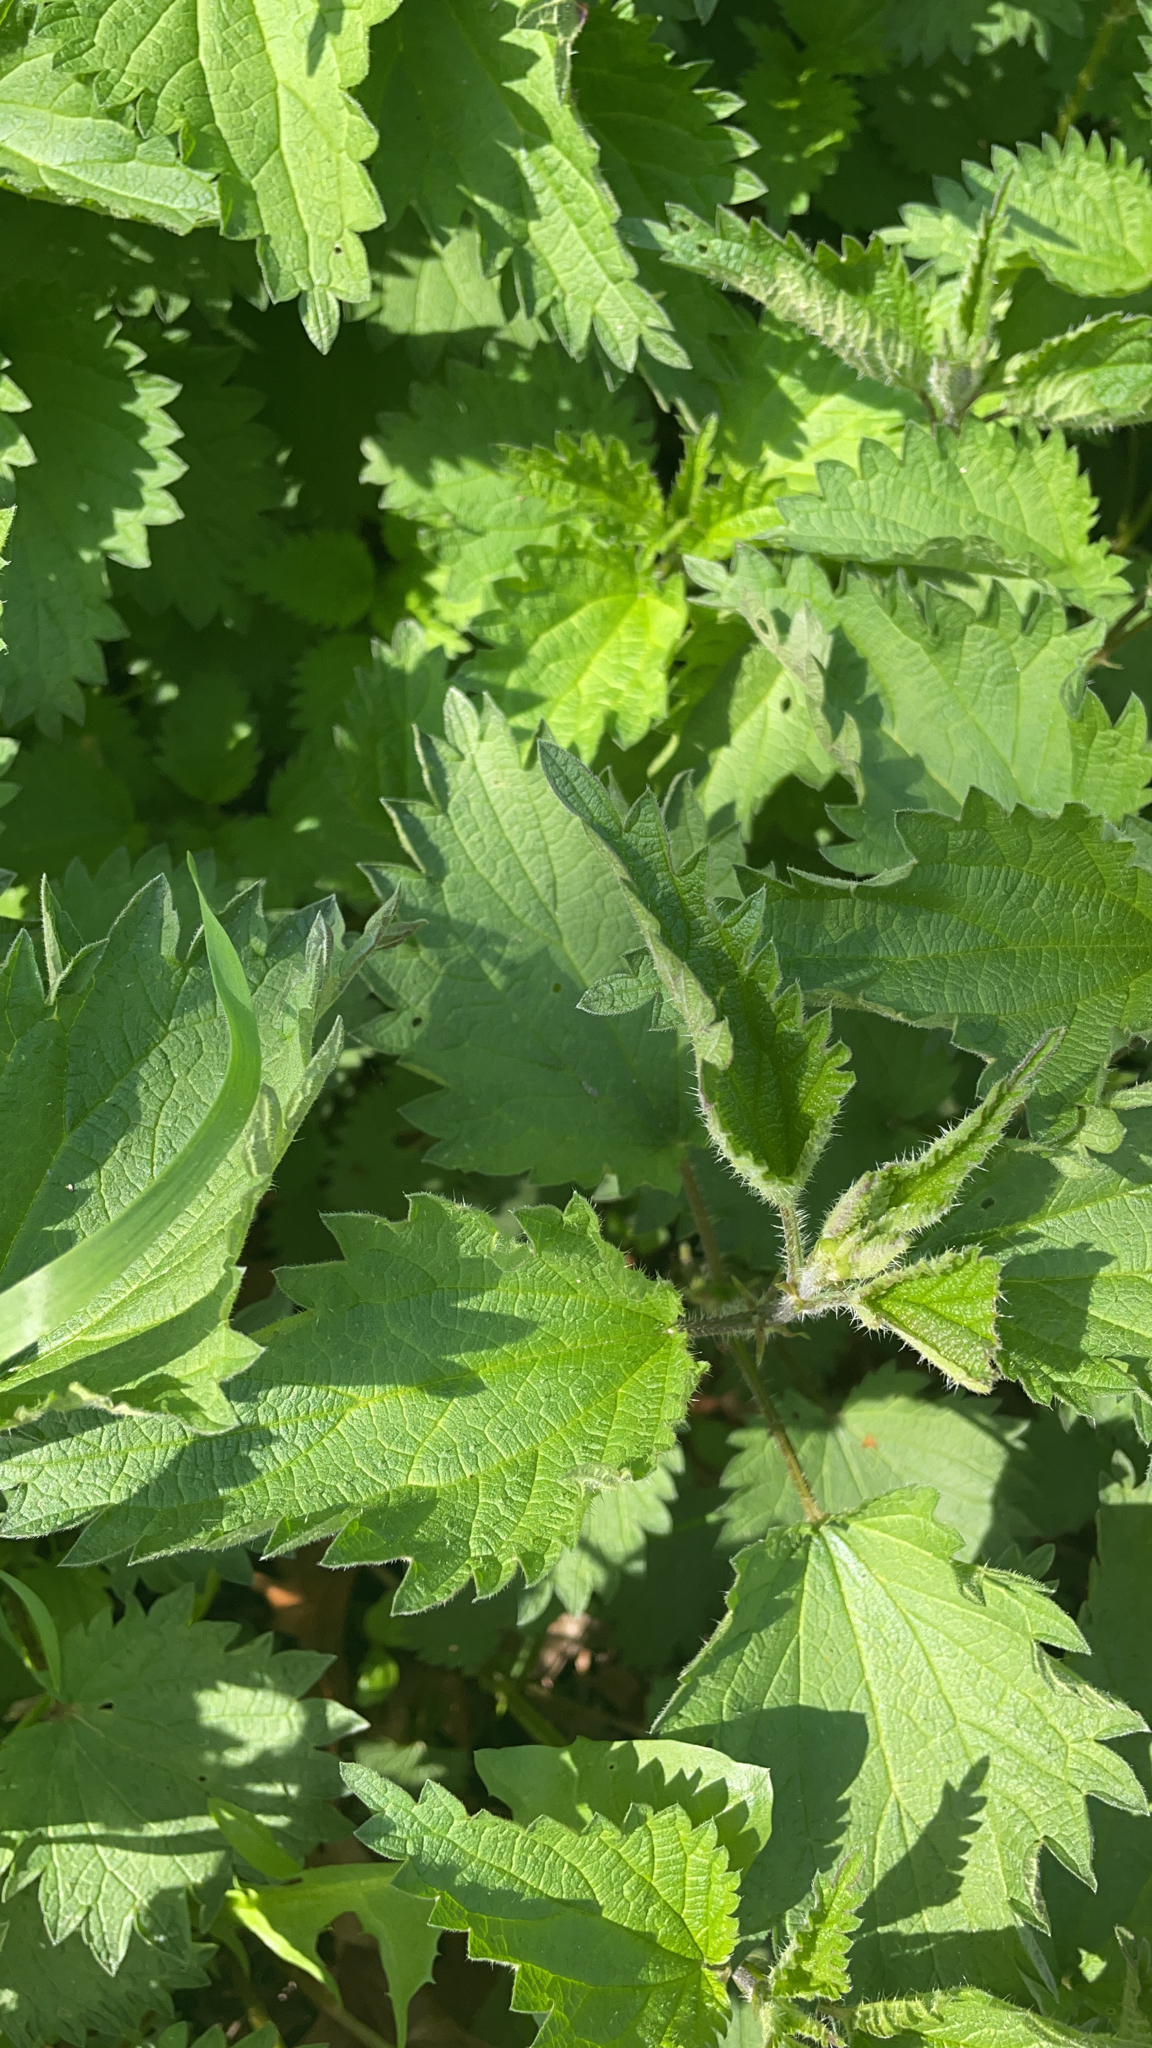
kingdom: Plantae
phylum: Tracheophyta
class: Magnoliopsida
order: Rosales
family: Urticaceae
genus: Urtica
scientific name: Urtica dioica
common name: Common nettle
